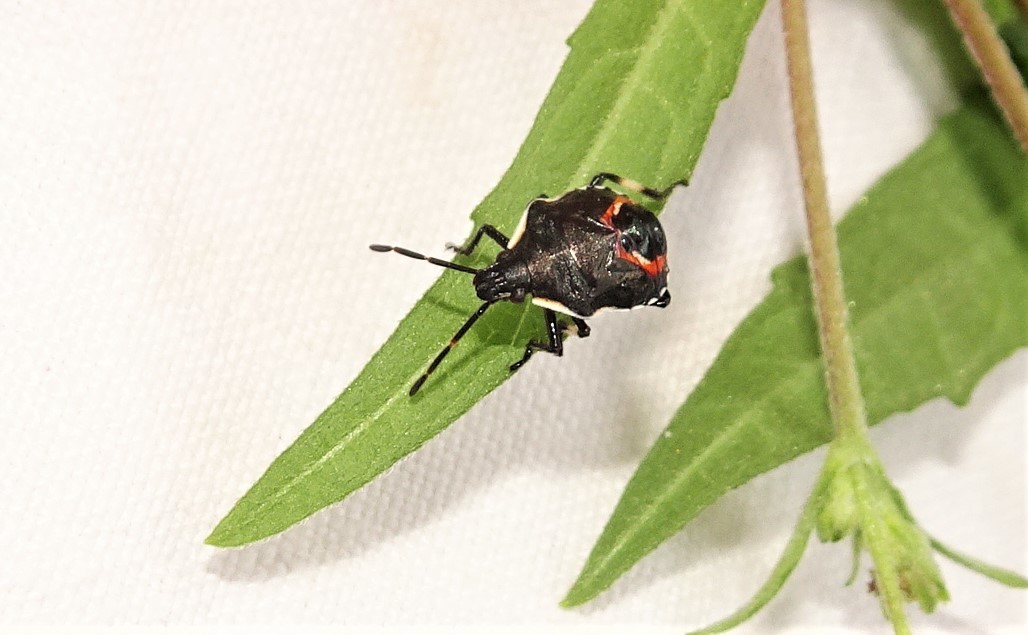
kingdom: Animalia
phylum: Arthropoda
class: Insecta
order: Hemiptera
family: Pentatomidae
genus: Oechalia
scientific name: Oechalia schellenbergii
